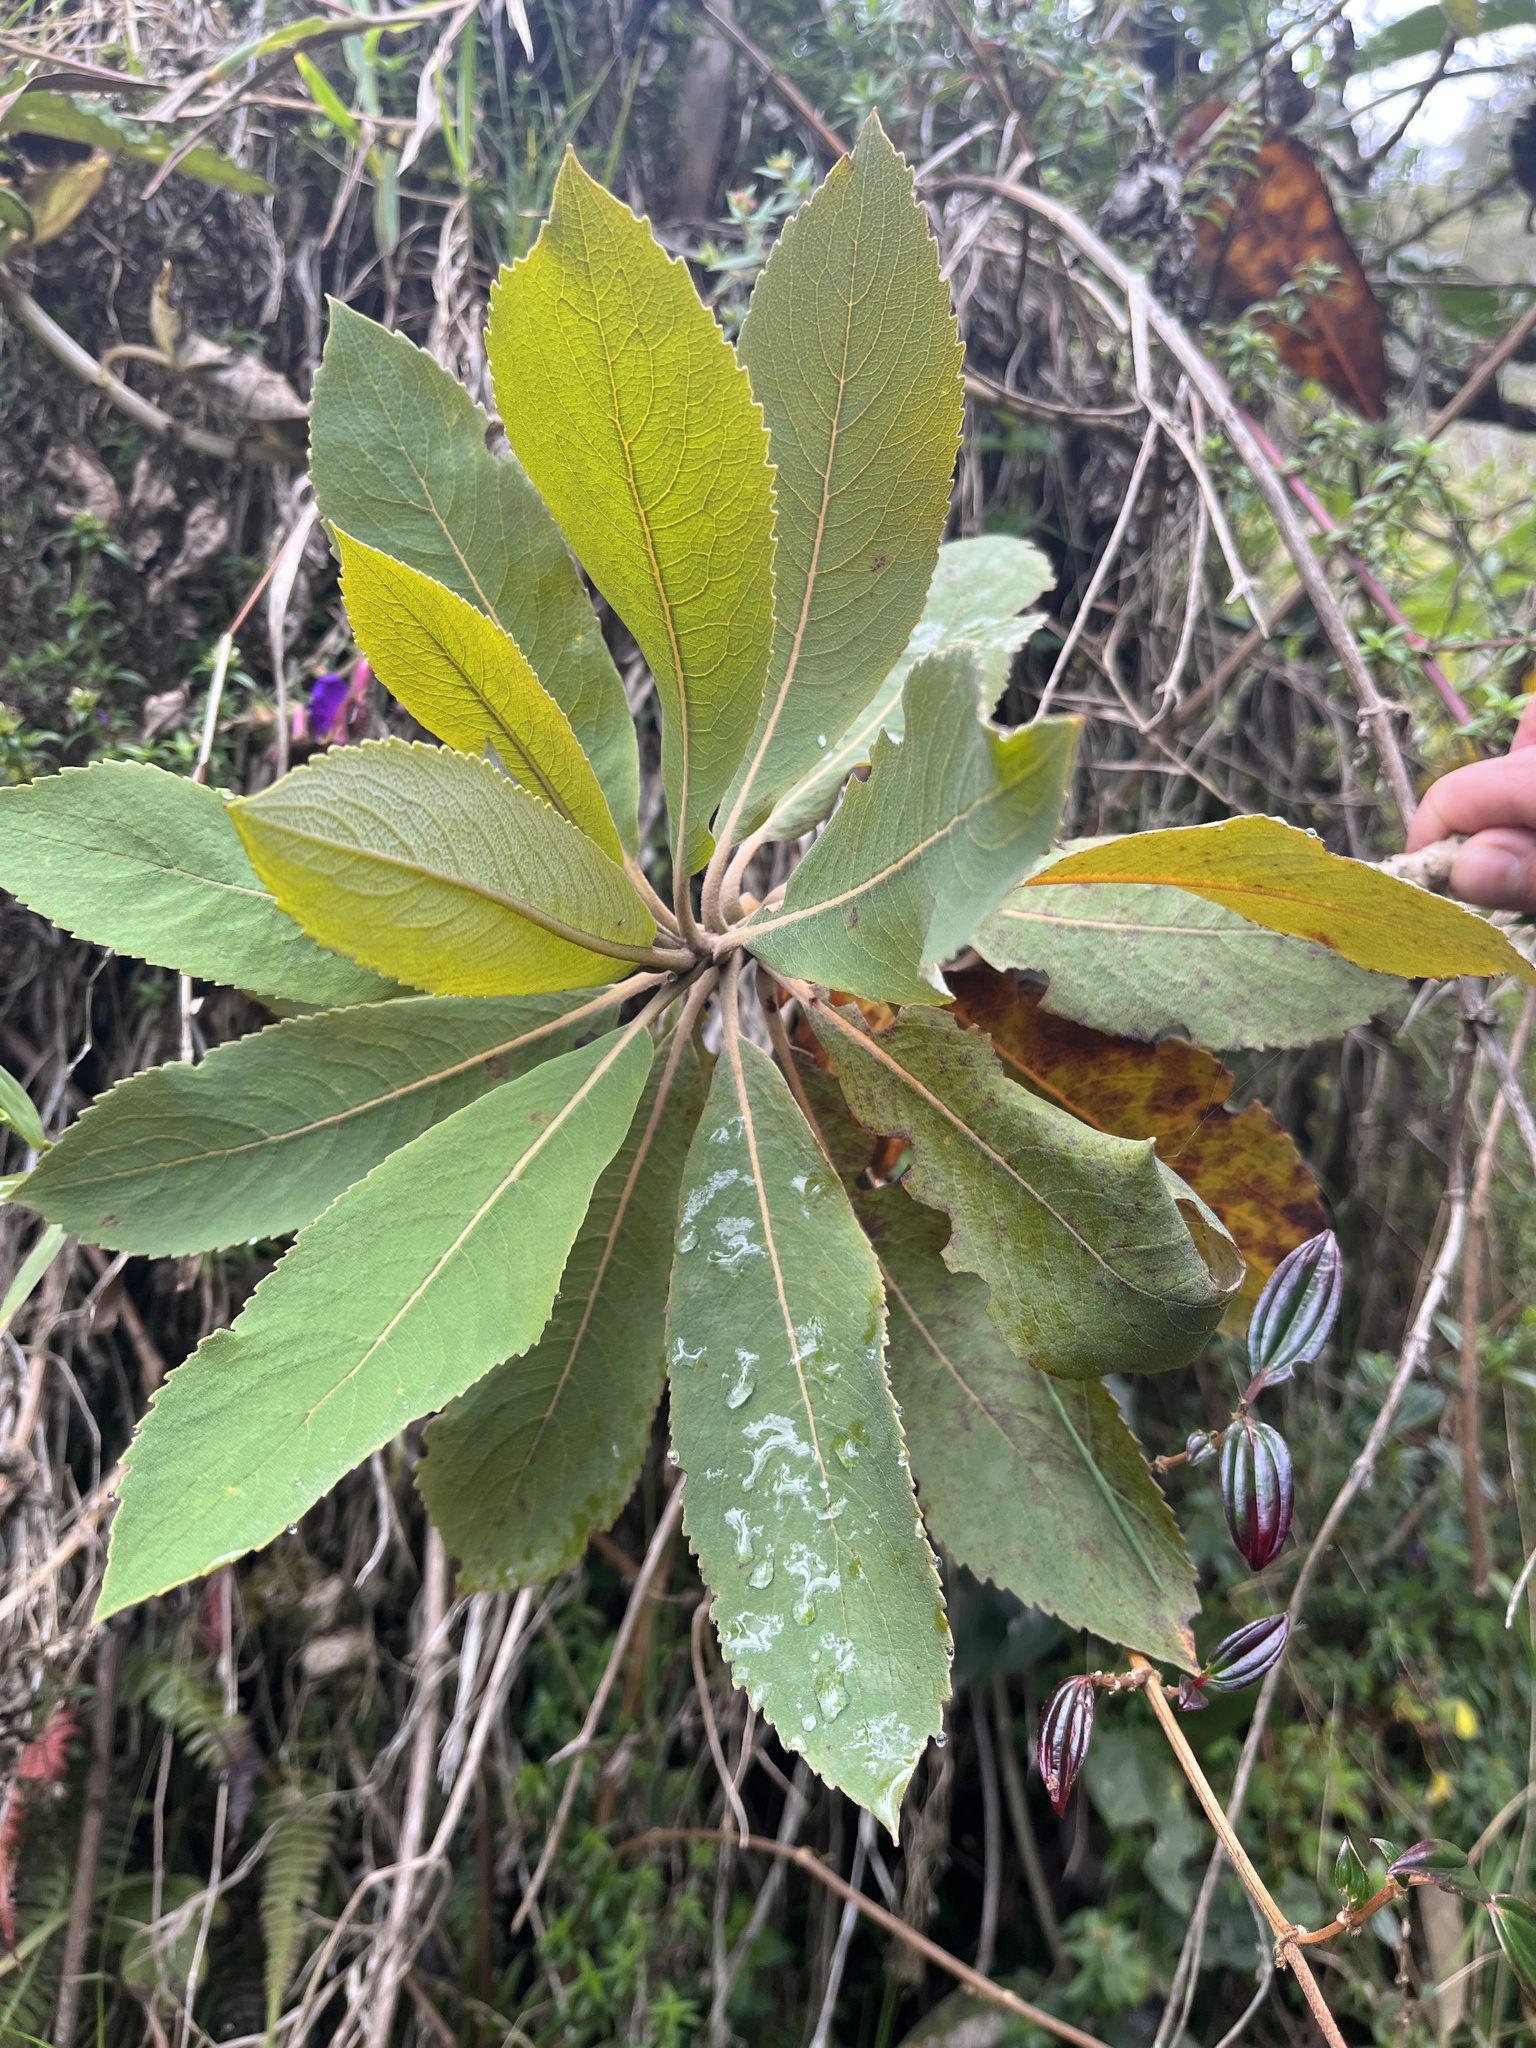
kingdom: Plantae
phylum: Tracheophyta
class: Magnoliopsida
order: Ranunculales
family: Papaveraceae
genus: Bocconia
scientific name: Bocconia integrifolia
